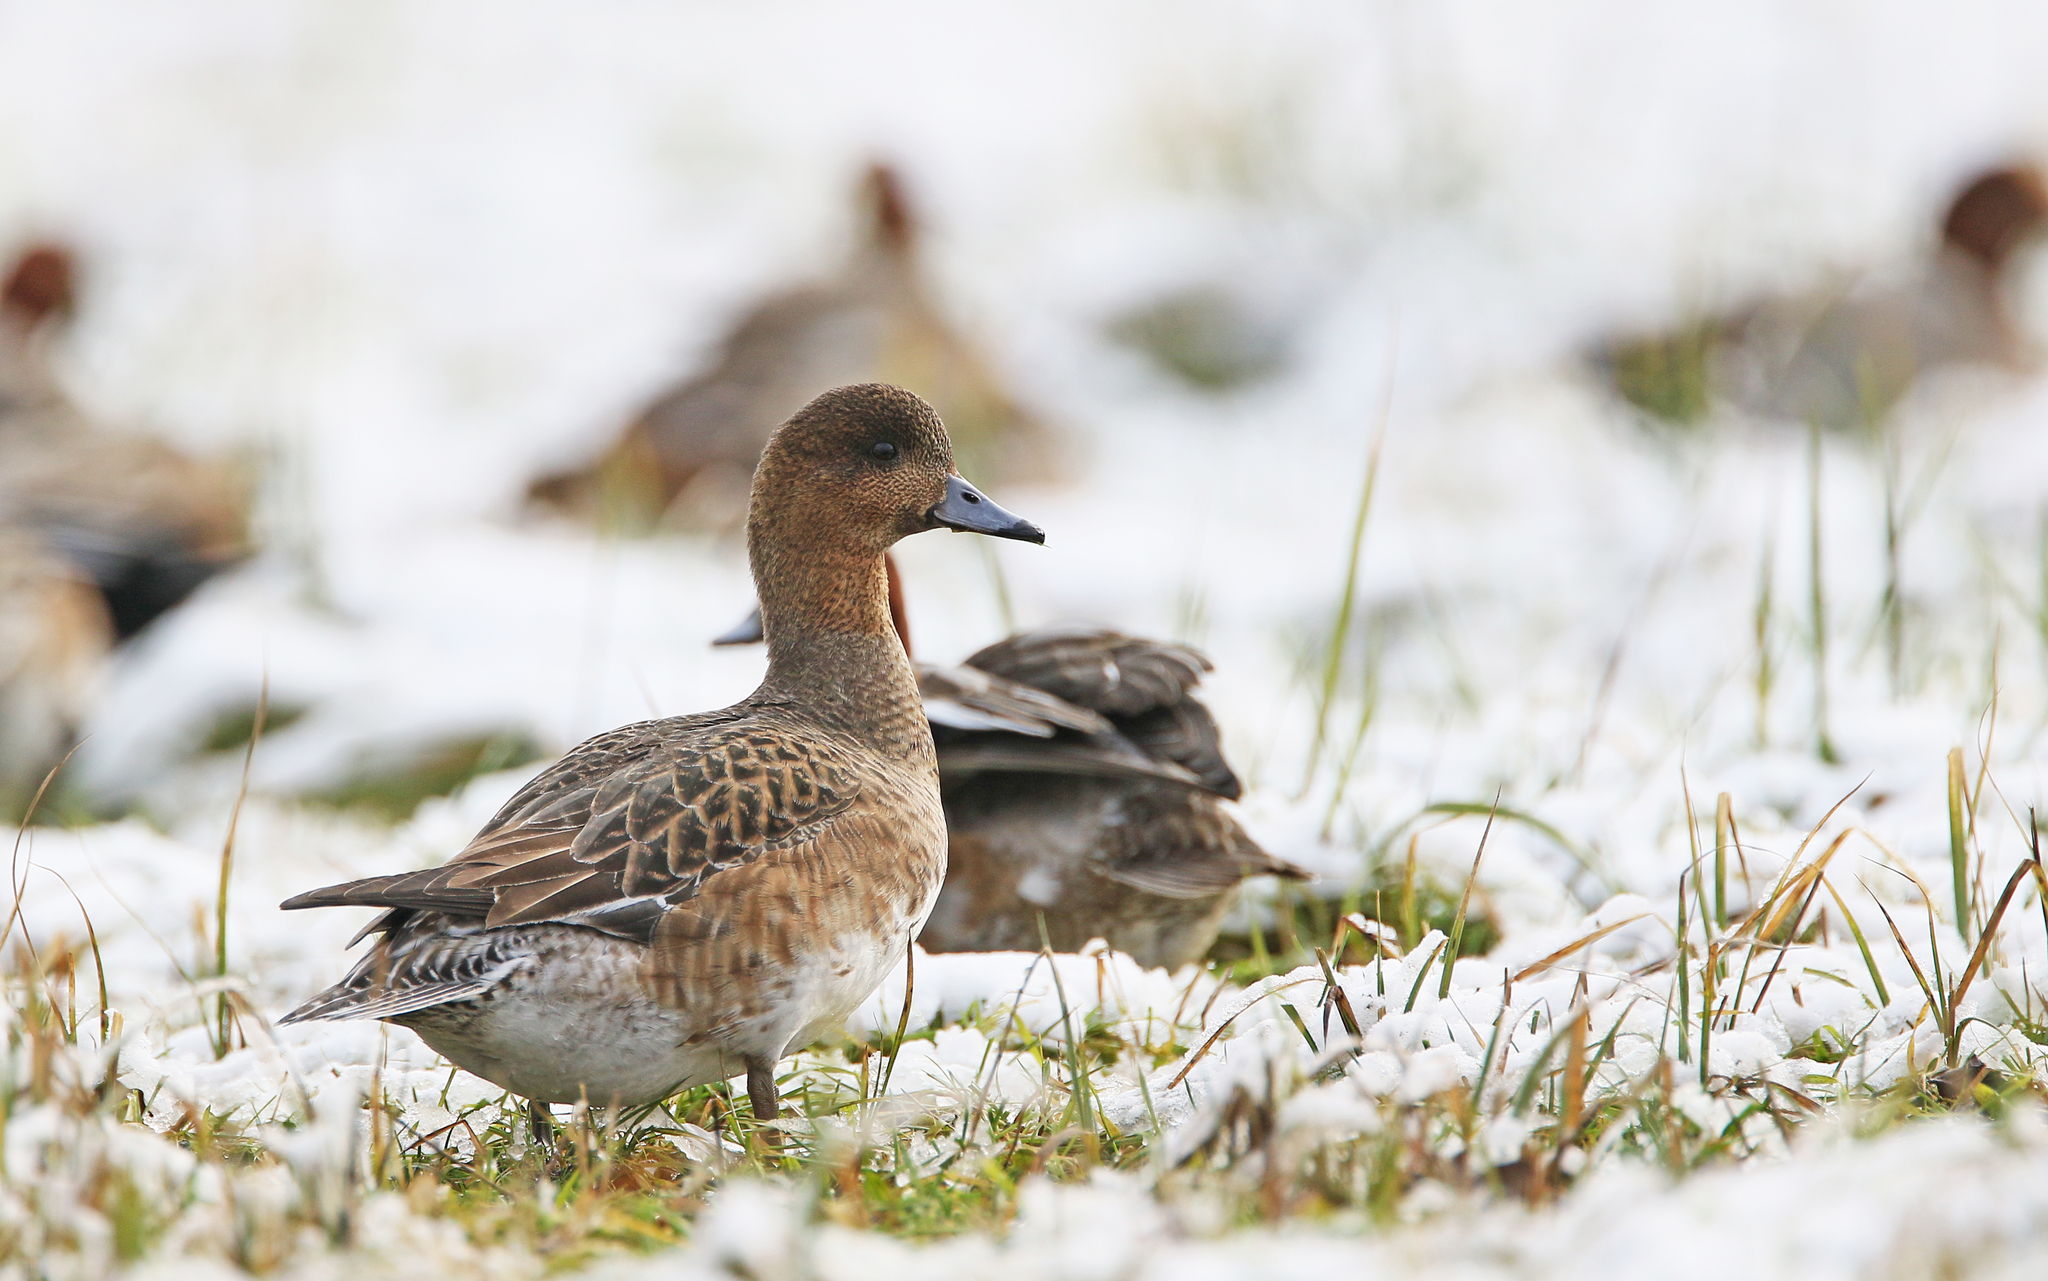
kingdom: Animalia
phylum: Chordata
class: Aves
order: Anseriformes
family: Anatidae
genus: Mareca
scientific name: Mareca penelope
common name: Eurasian wigeon
